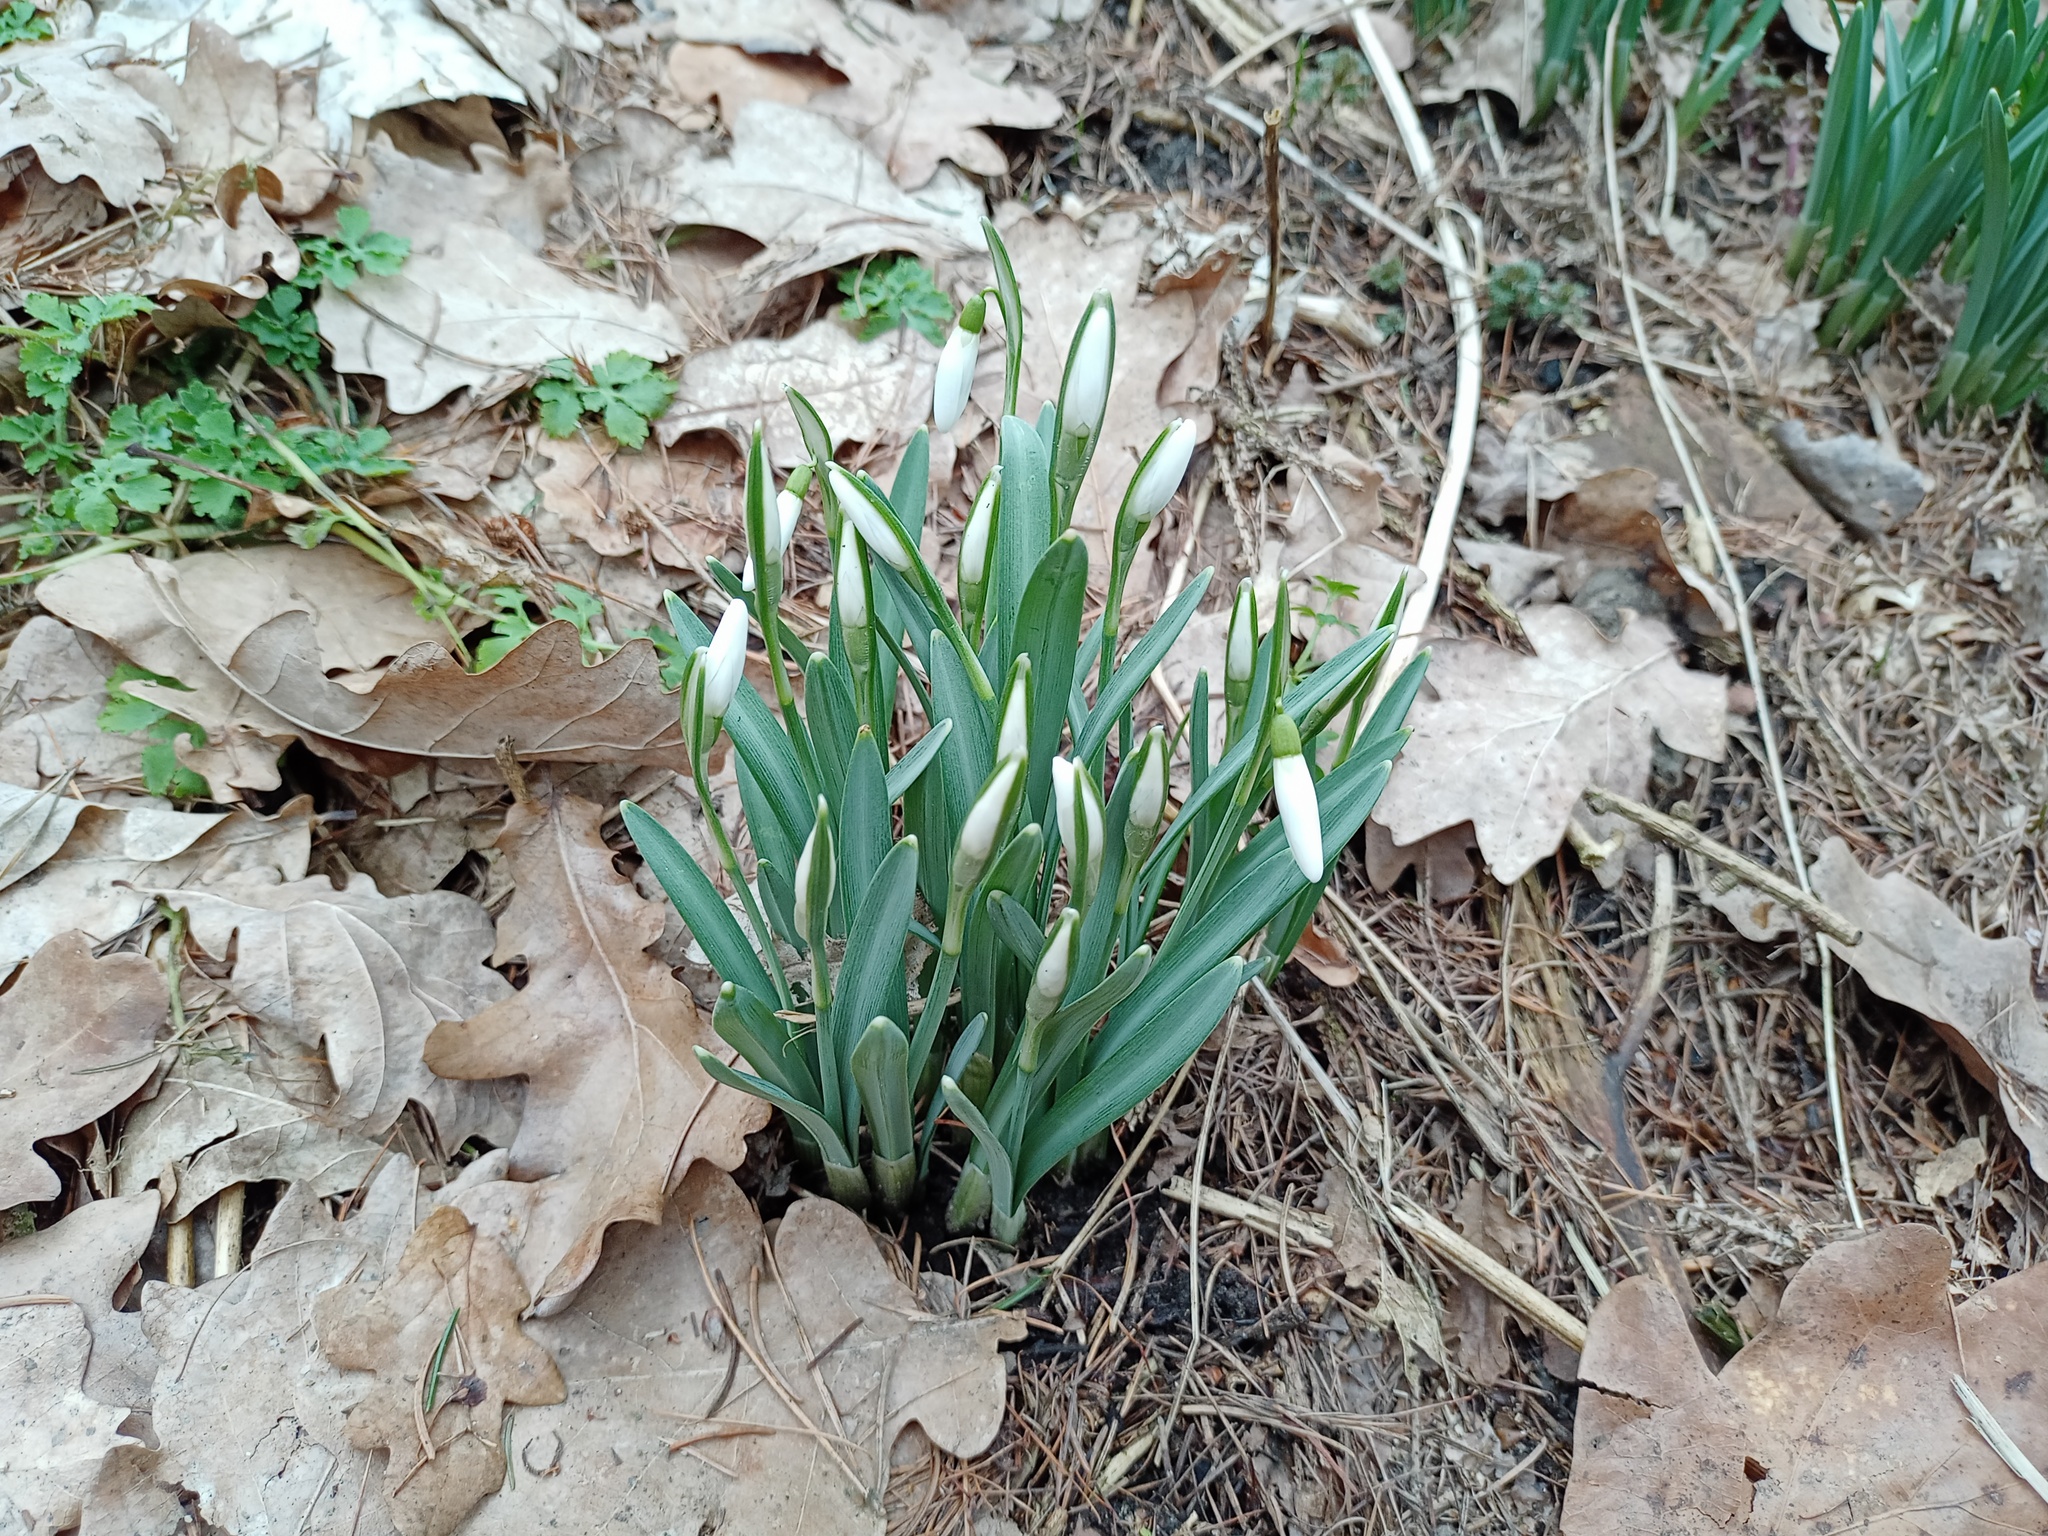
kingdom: Plantae
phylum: Tracheophyta
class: Liliopsida
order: Asparagales
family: Amaryllidaceae
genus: Galanthus
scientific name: Galanthus nivalis
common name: Snowdrop
